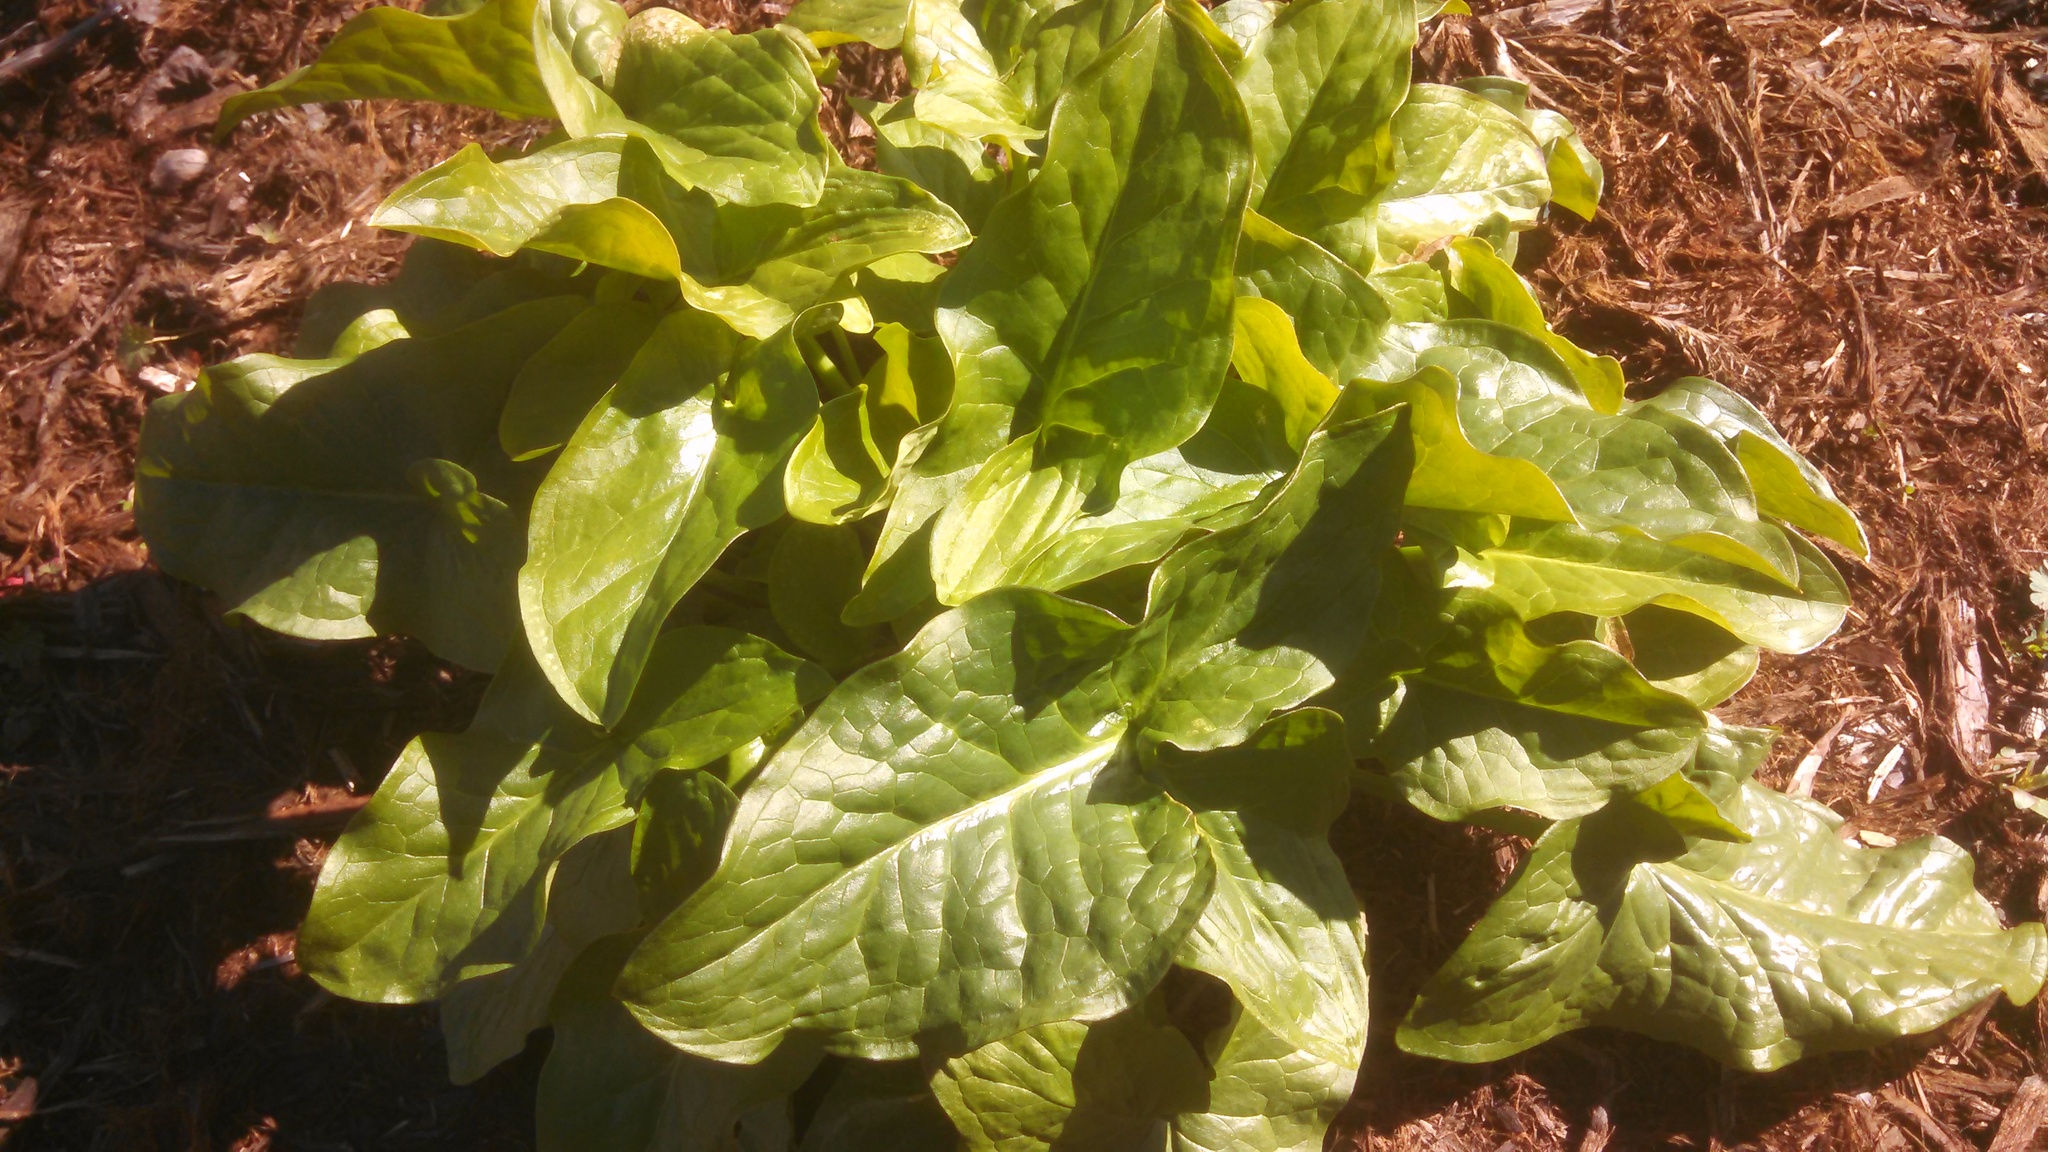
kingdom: Plantae
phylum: Tracheophyta
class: Liliopsida
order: Alismatales
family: Araceae
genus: Arum
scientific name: Arum italicum
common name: Italian lords-and-ladies
